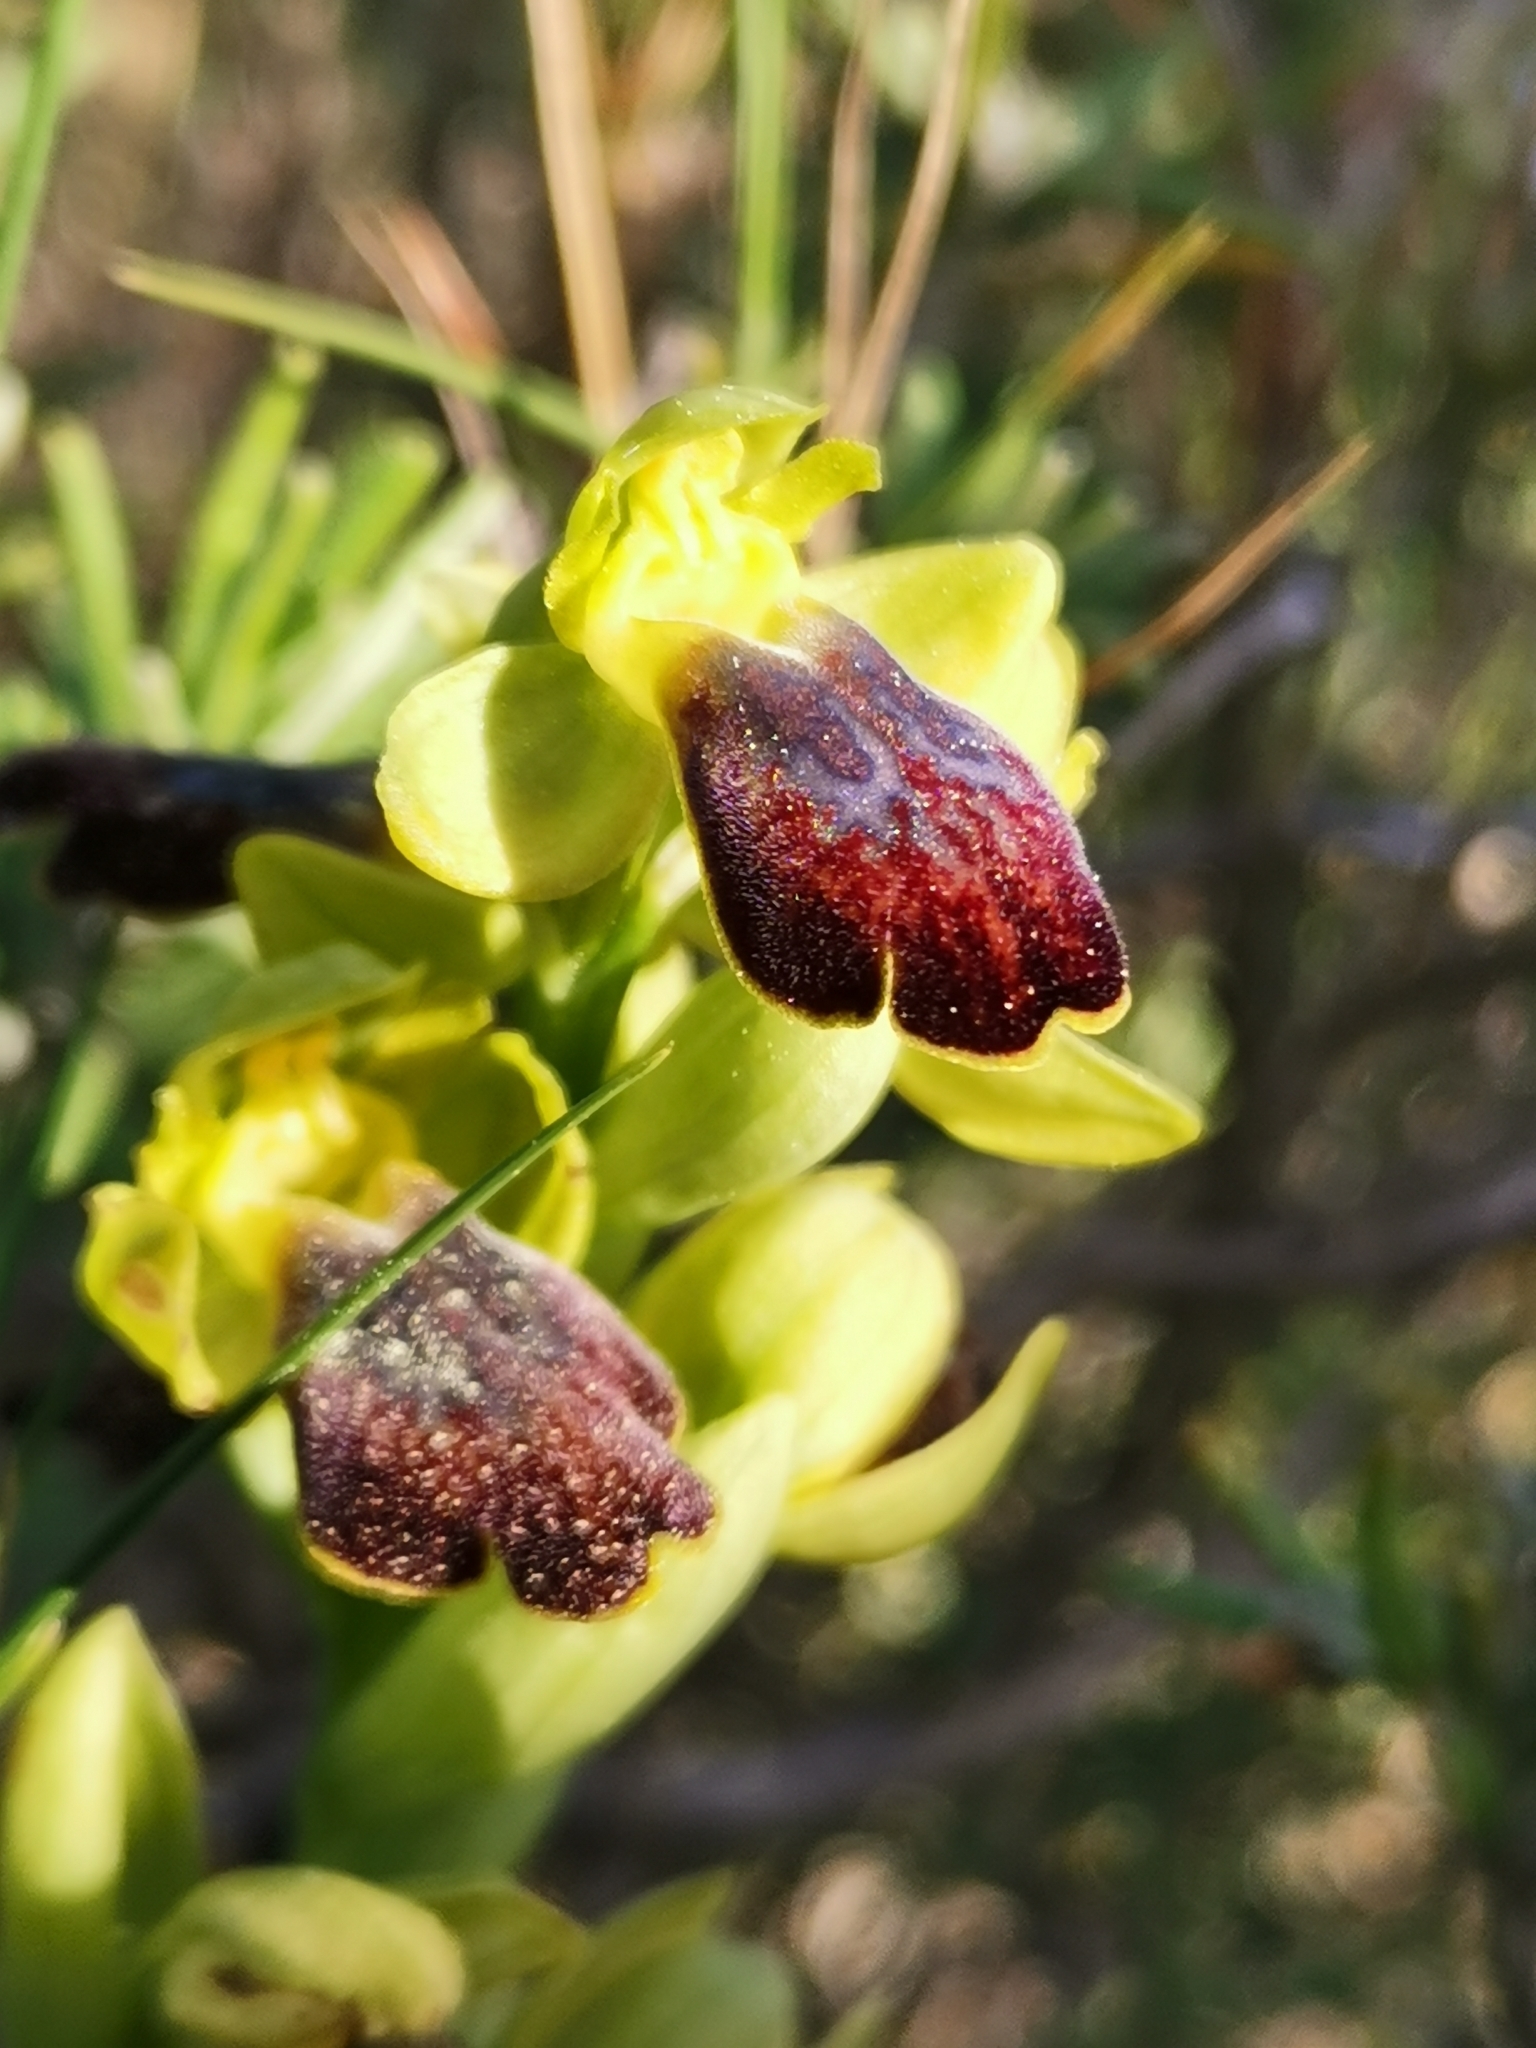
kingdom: Plantae
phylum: Tracheophyta
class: Liliopsida
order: Asparagales
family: Orchidaceae
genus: Ophrys
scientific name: Ophrys fusca
